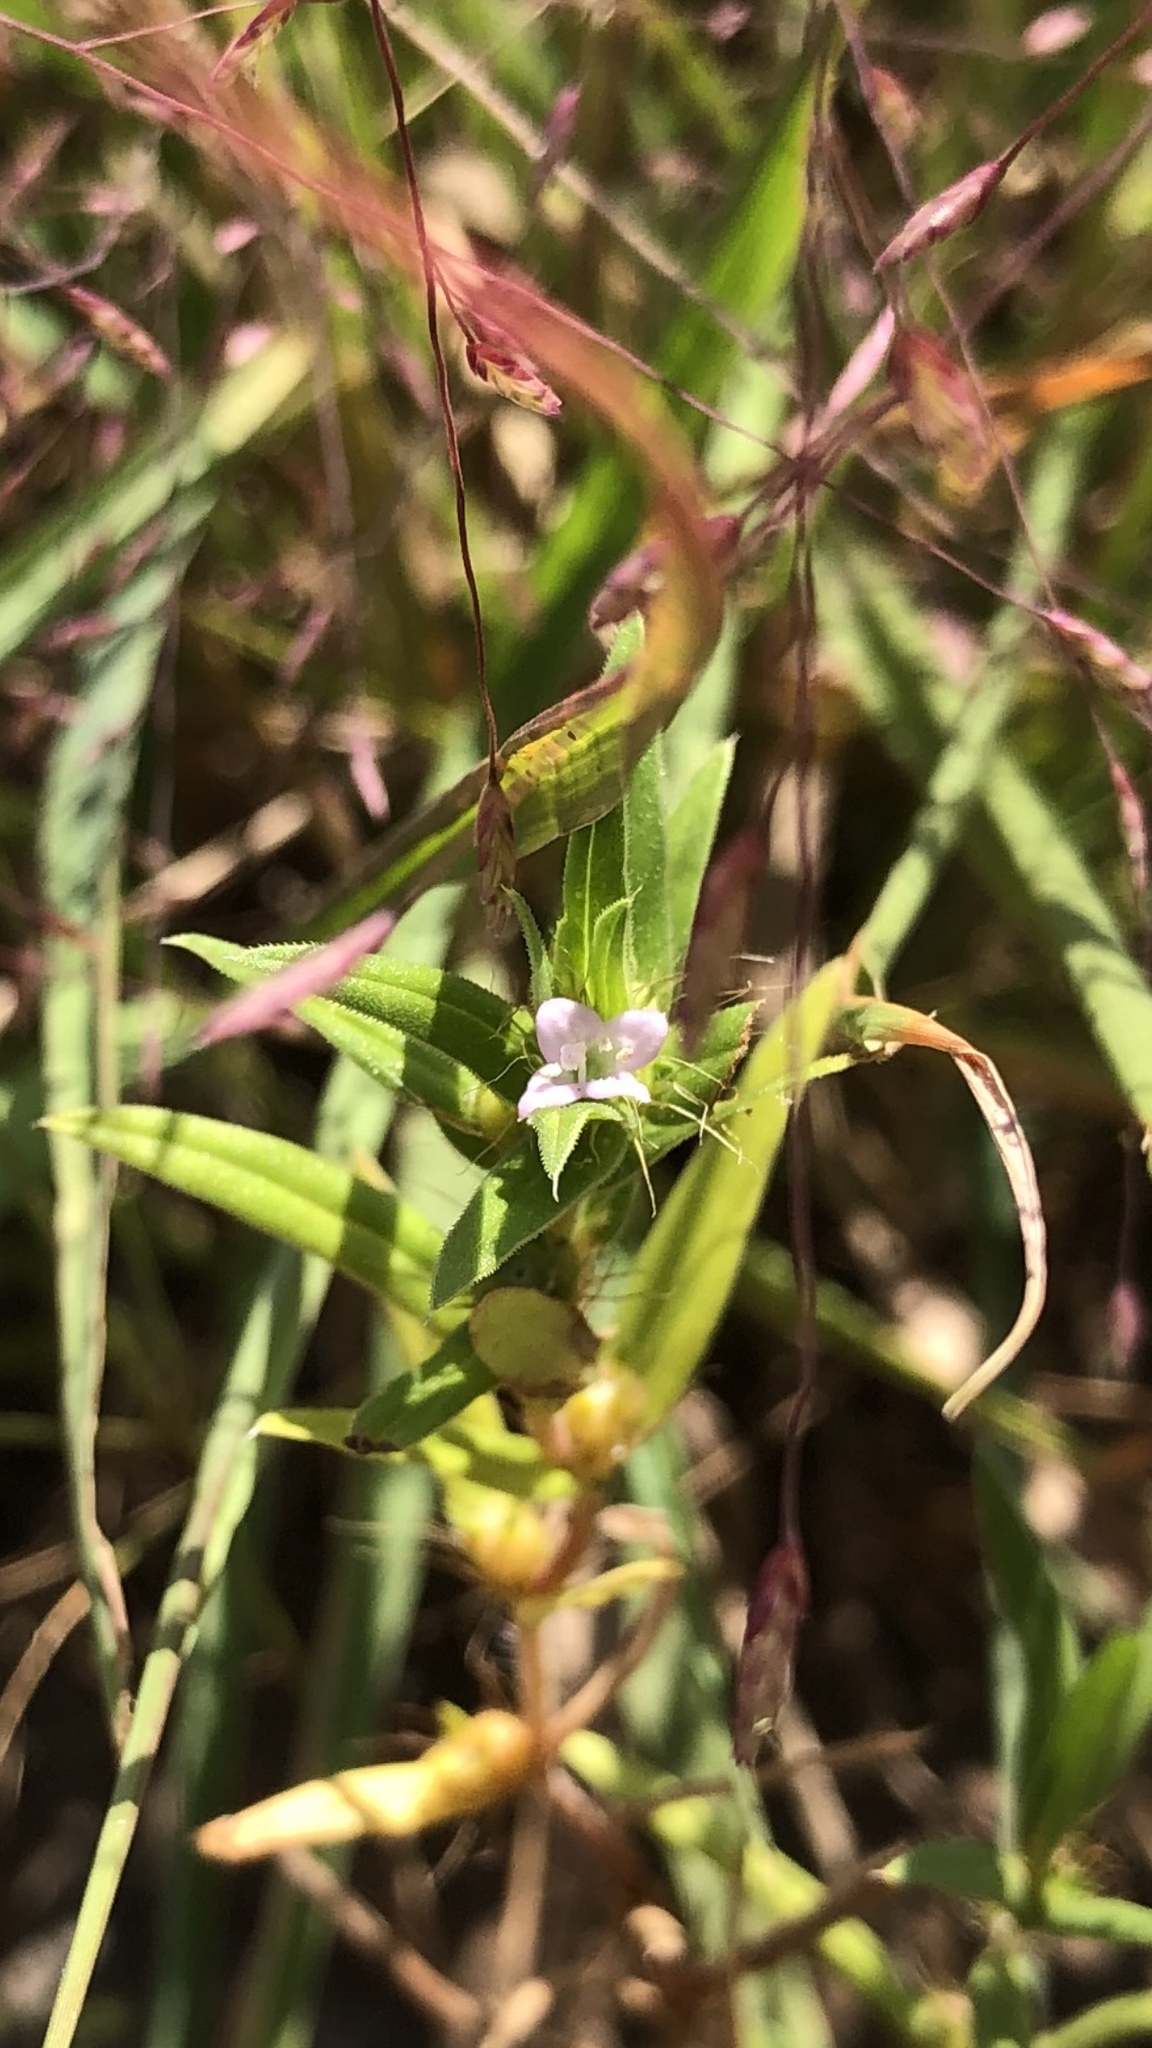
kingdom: Plantae
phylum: Tracheophyta
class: Magnoliopsida
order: Gentianales
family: Rubiaceae
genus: Hexasepalum
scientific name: Hexasepalum teres
